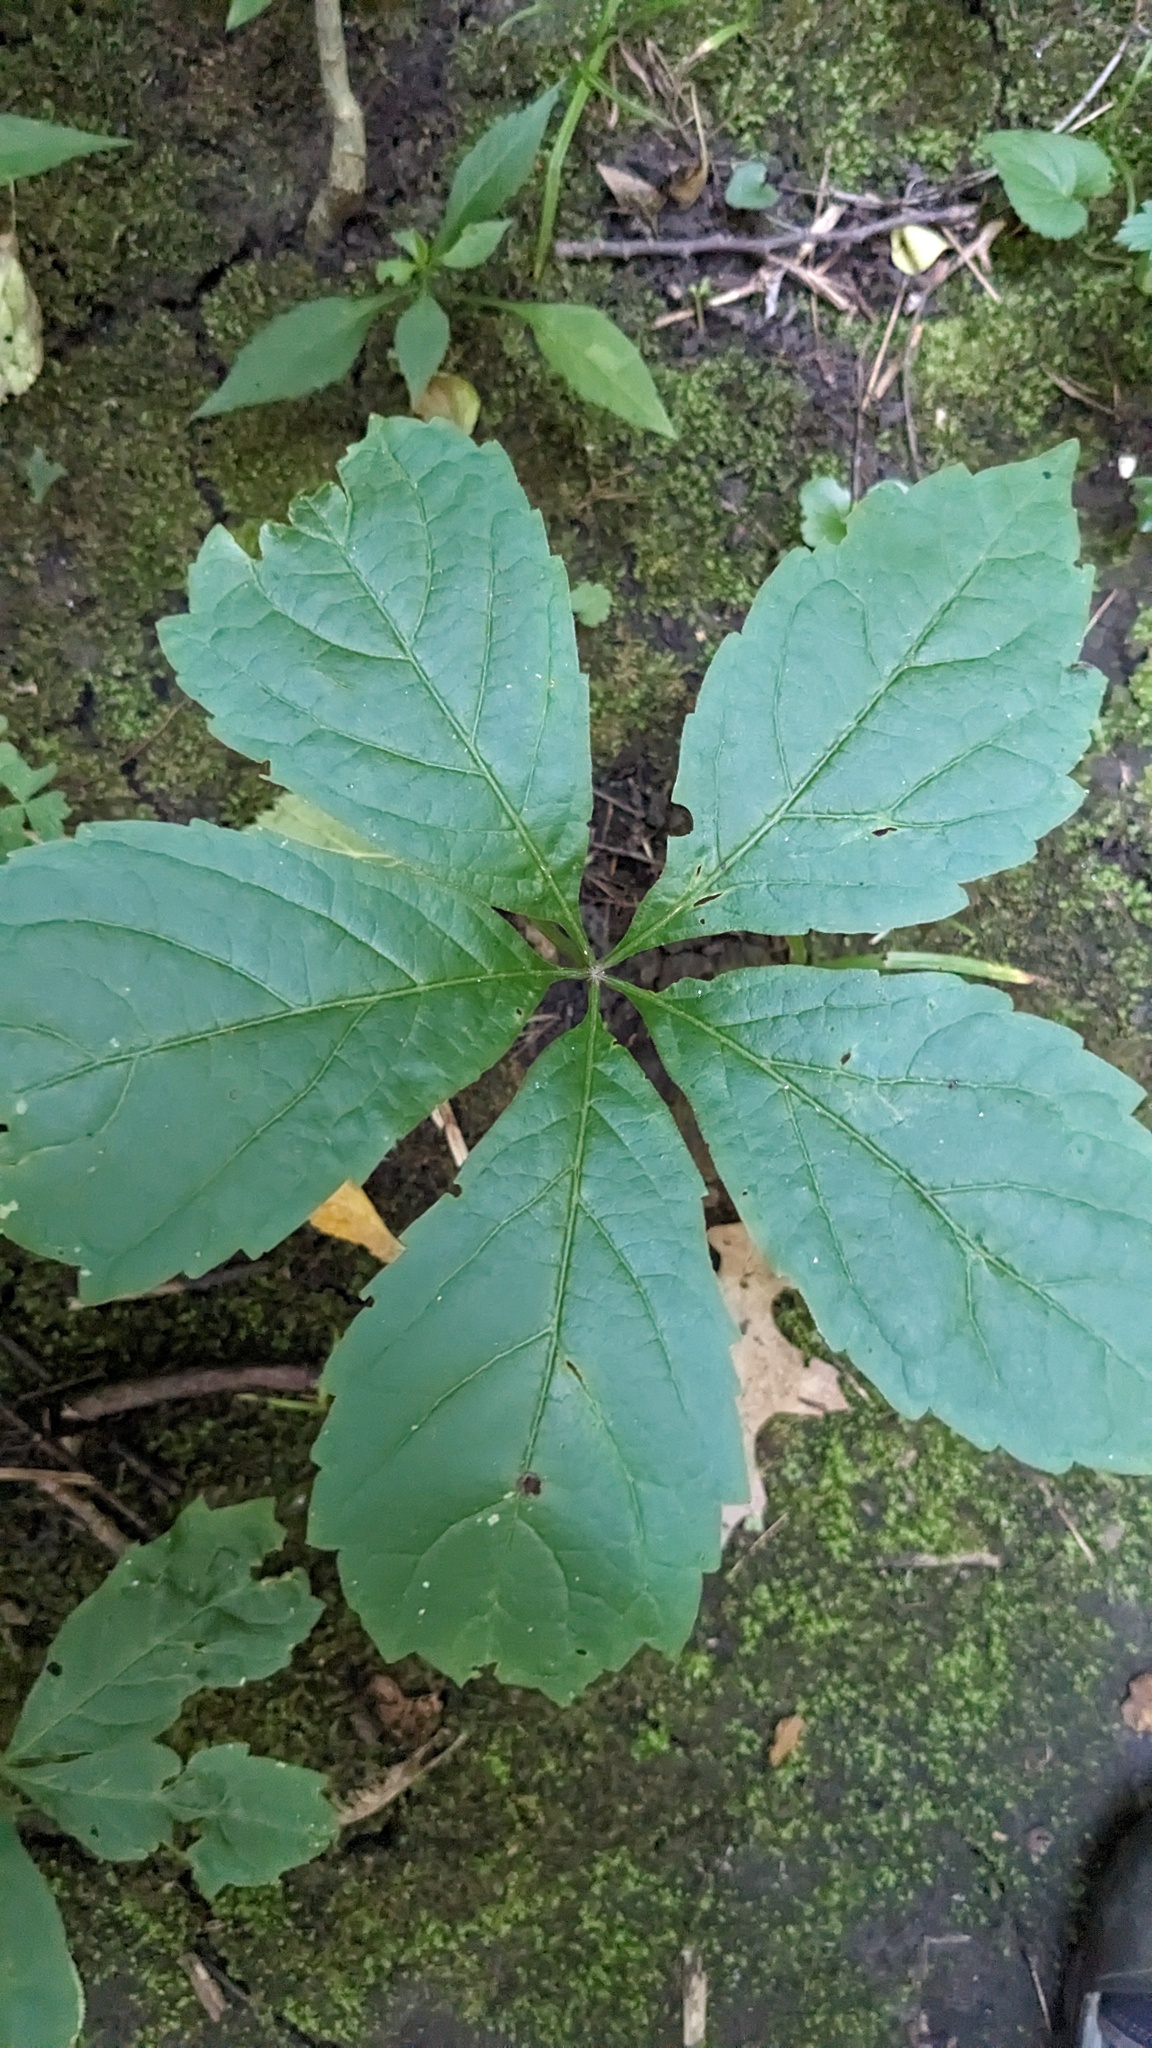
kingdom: Plantae
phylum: Tracheophyta
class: Magnoliopsida
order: Vitales
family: Vitaceae
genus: Parthenocissus
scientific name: Parthenocissus inserta
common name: False virginia-creeper
